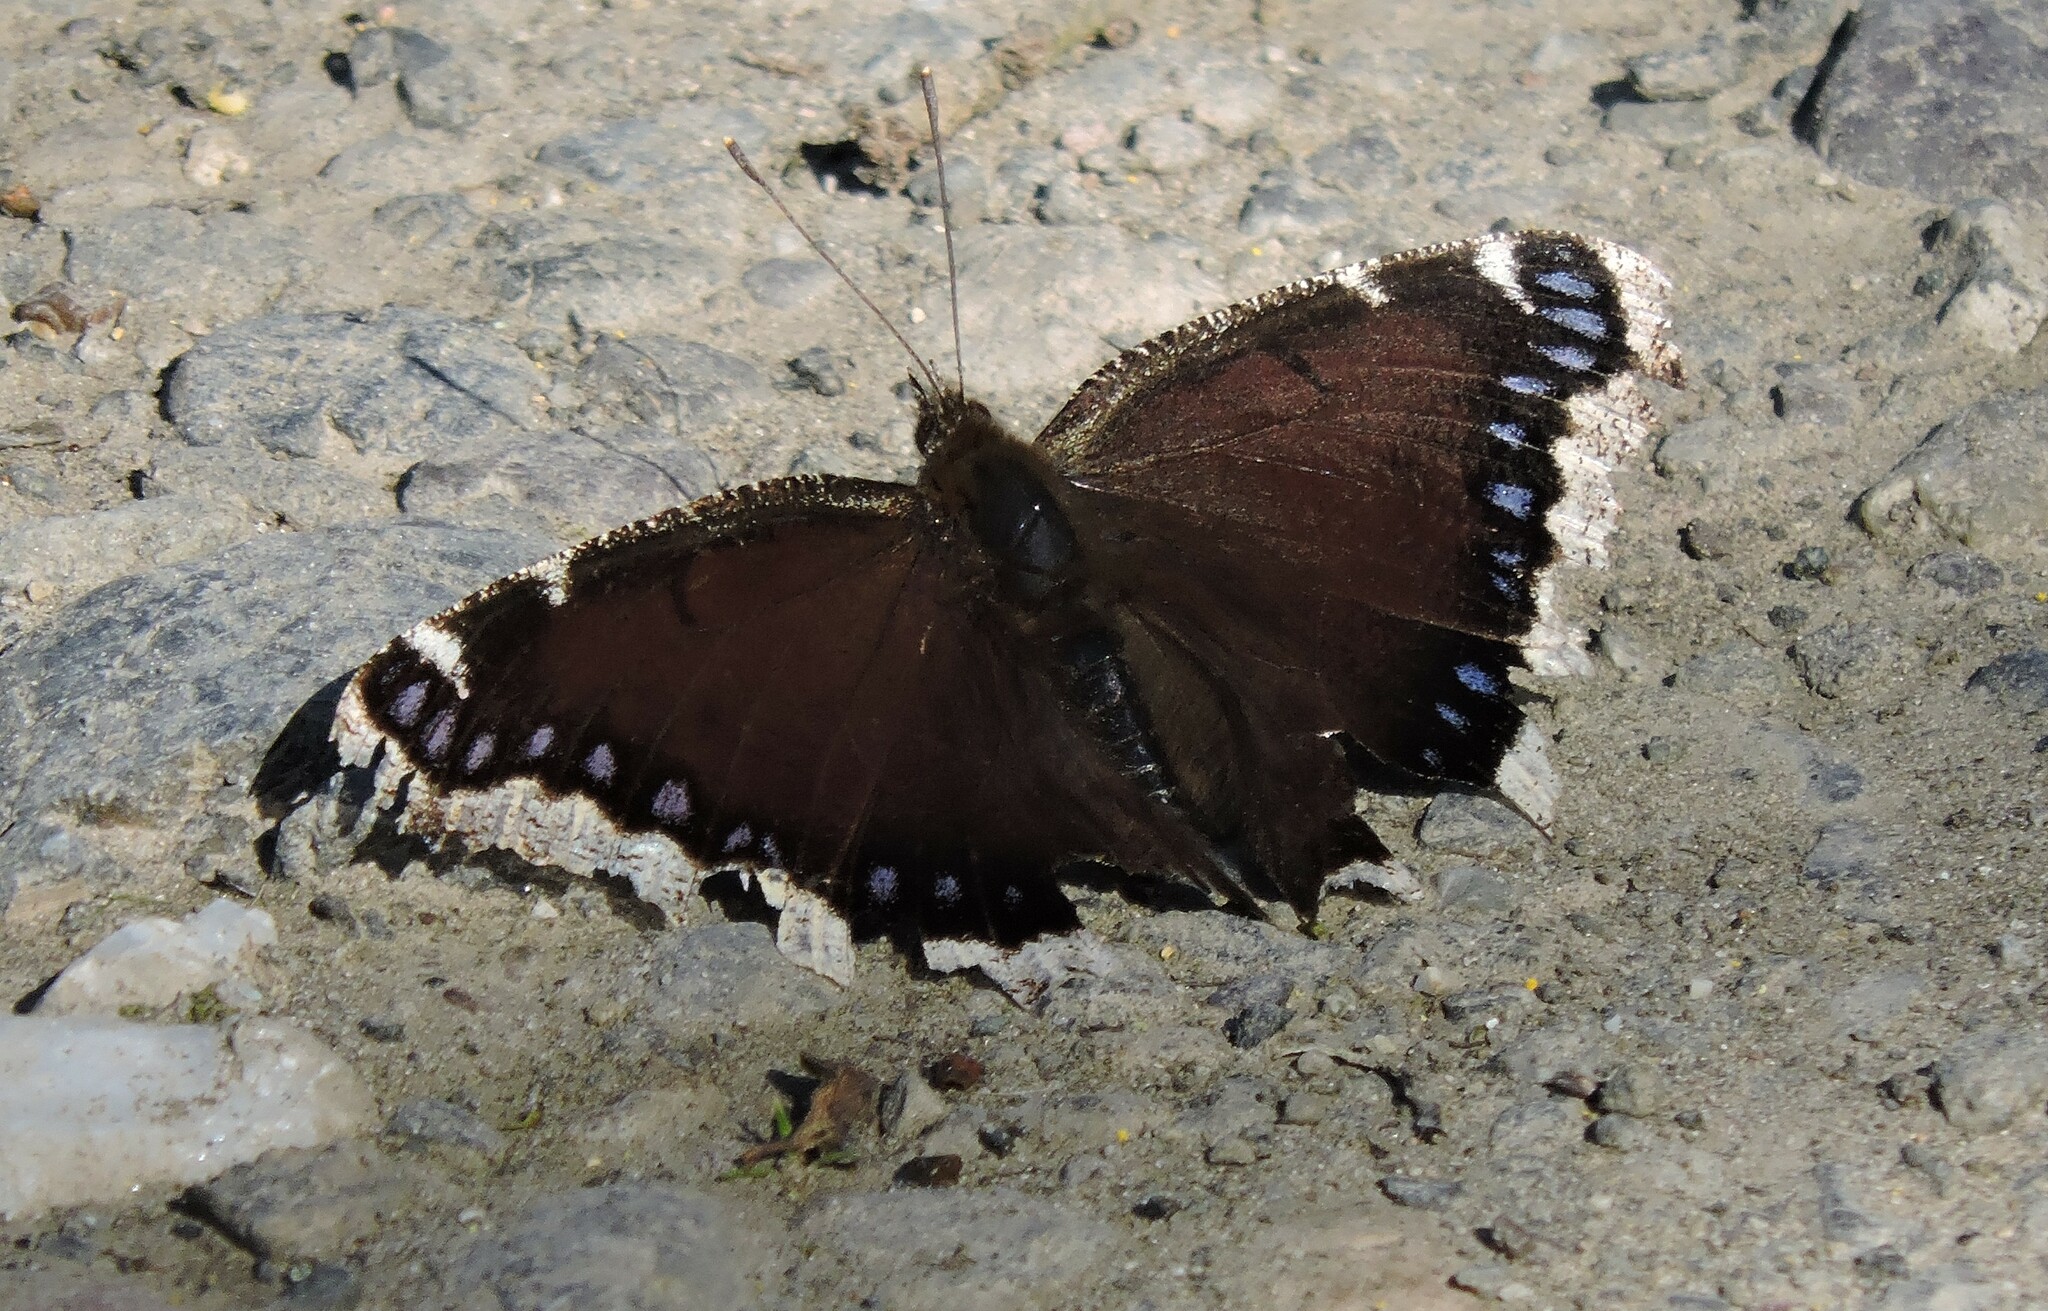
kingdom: Animalia
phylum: Arthropoda
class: Insecta
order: Lepidoptera
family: Nymphalidae
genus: Nymphalis
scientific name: Nymphalis antiopa
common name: Camberwell beauty
